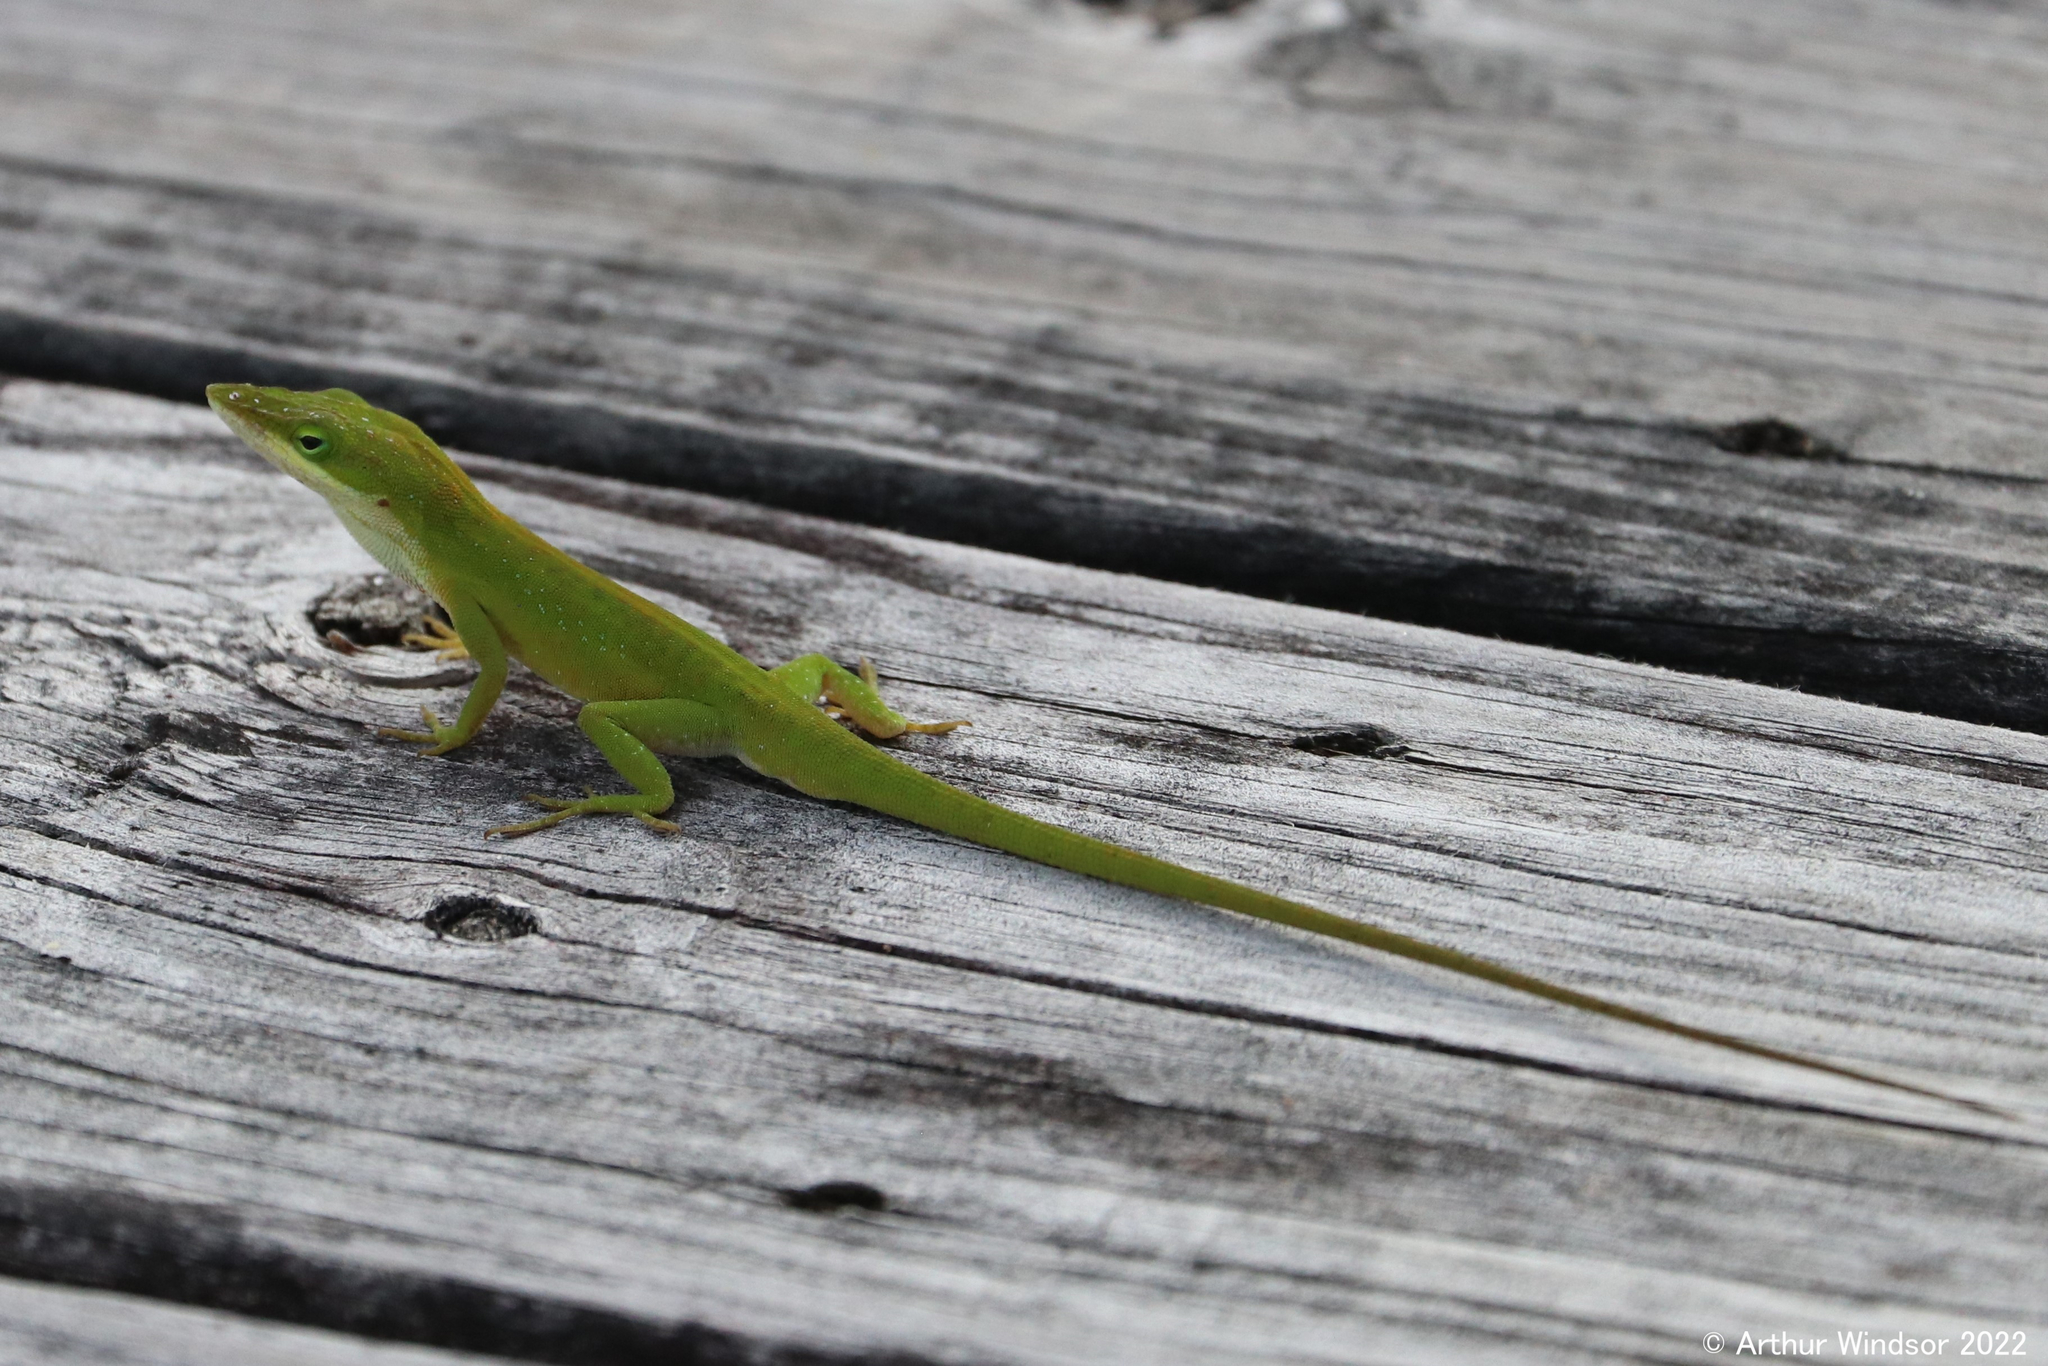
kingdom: Animalia
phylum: Chordata
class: Squamata
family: Dactyloidae
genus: Anolis
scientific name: Anolis carolinensis
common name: Green anole
